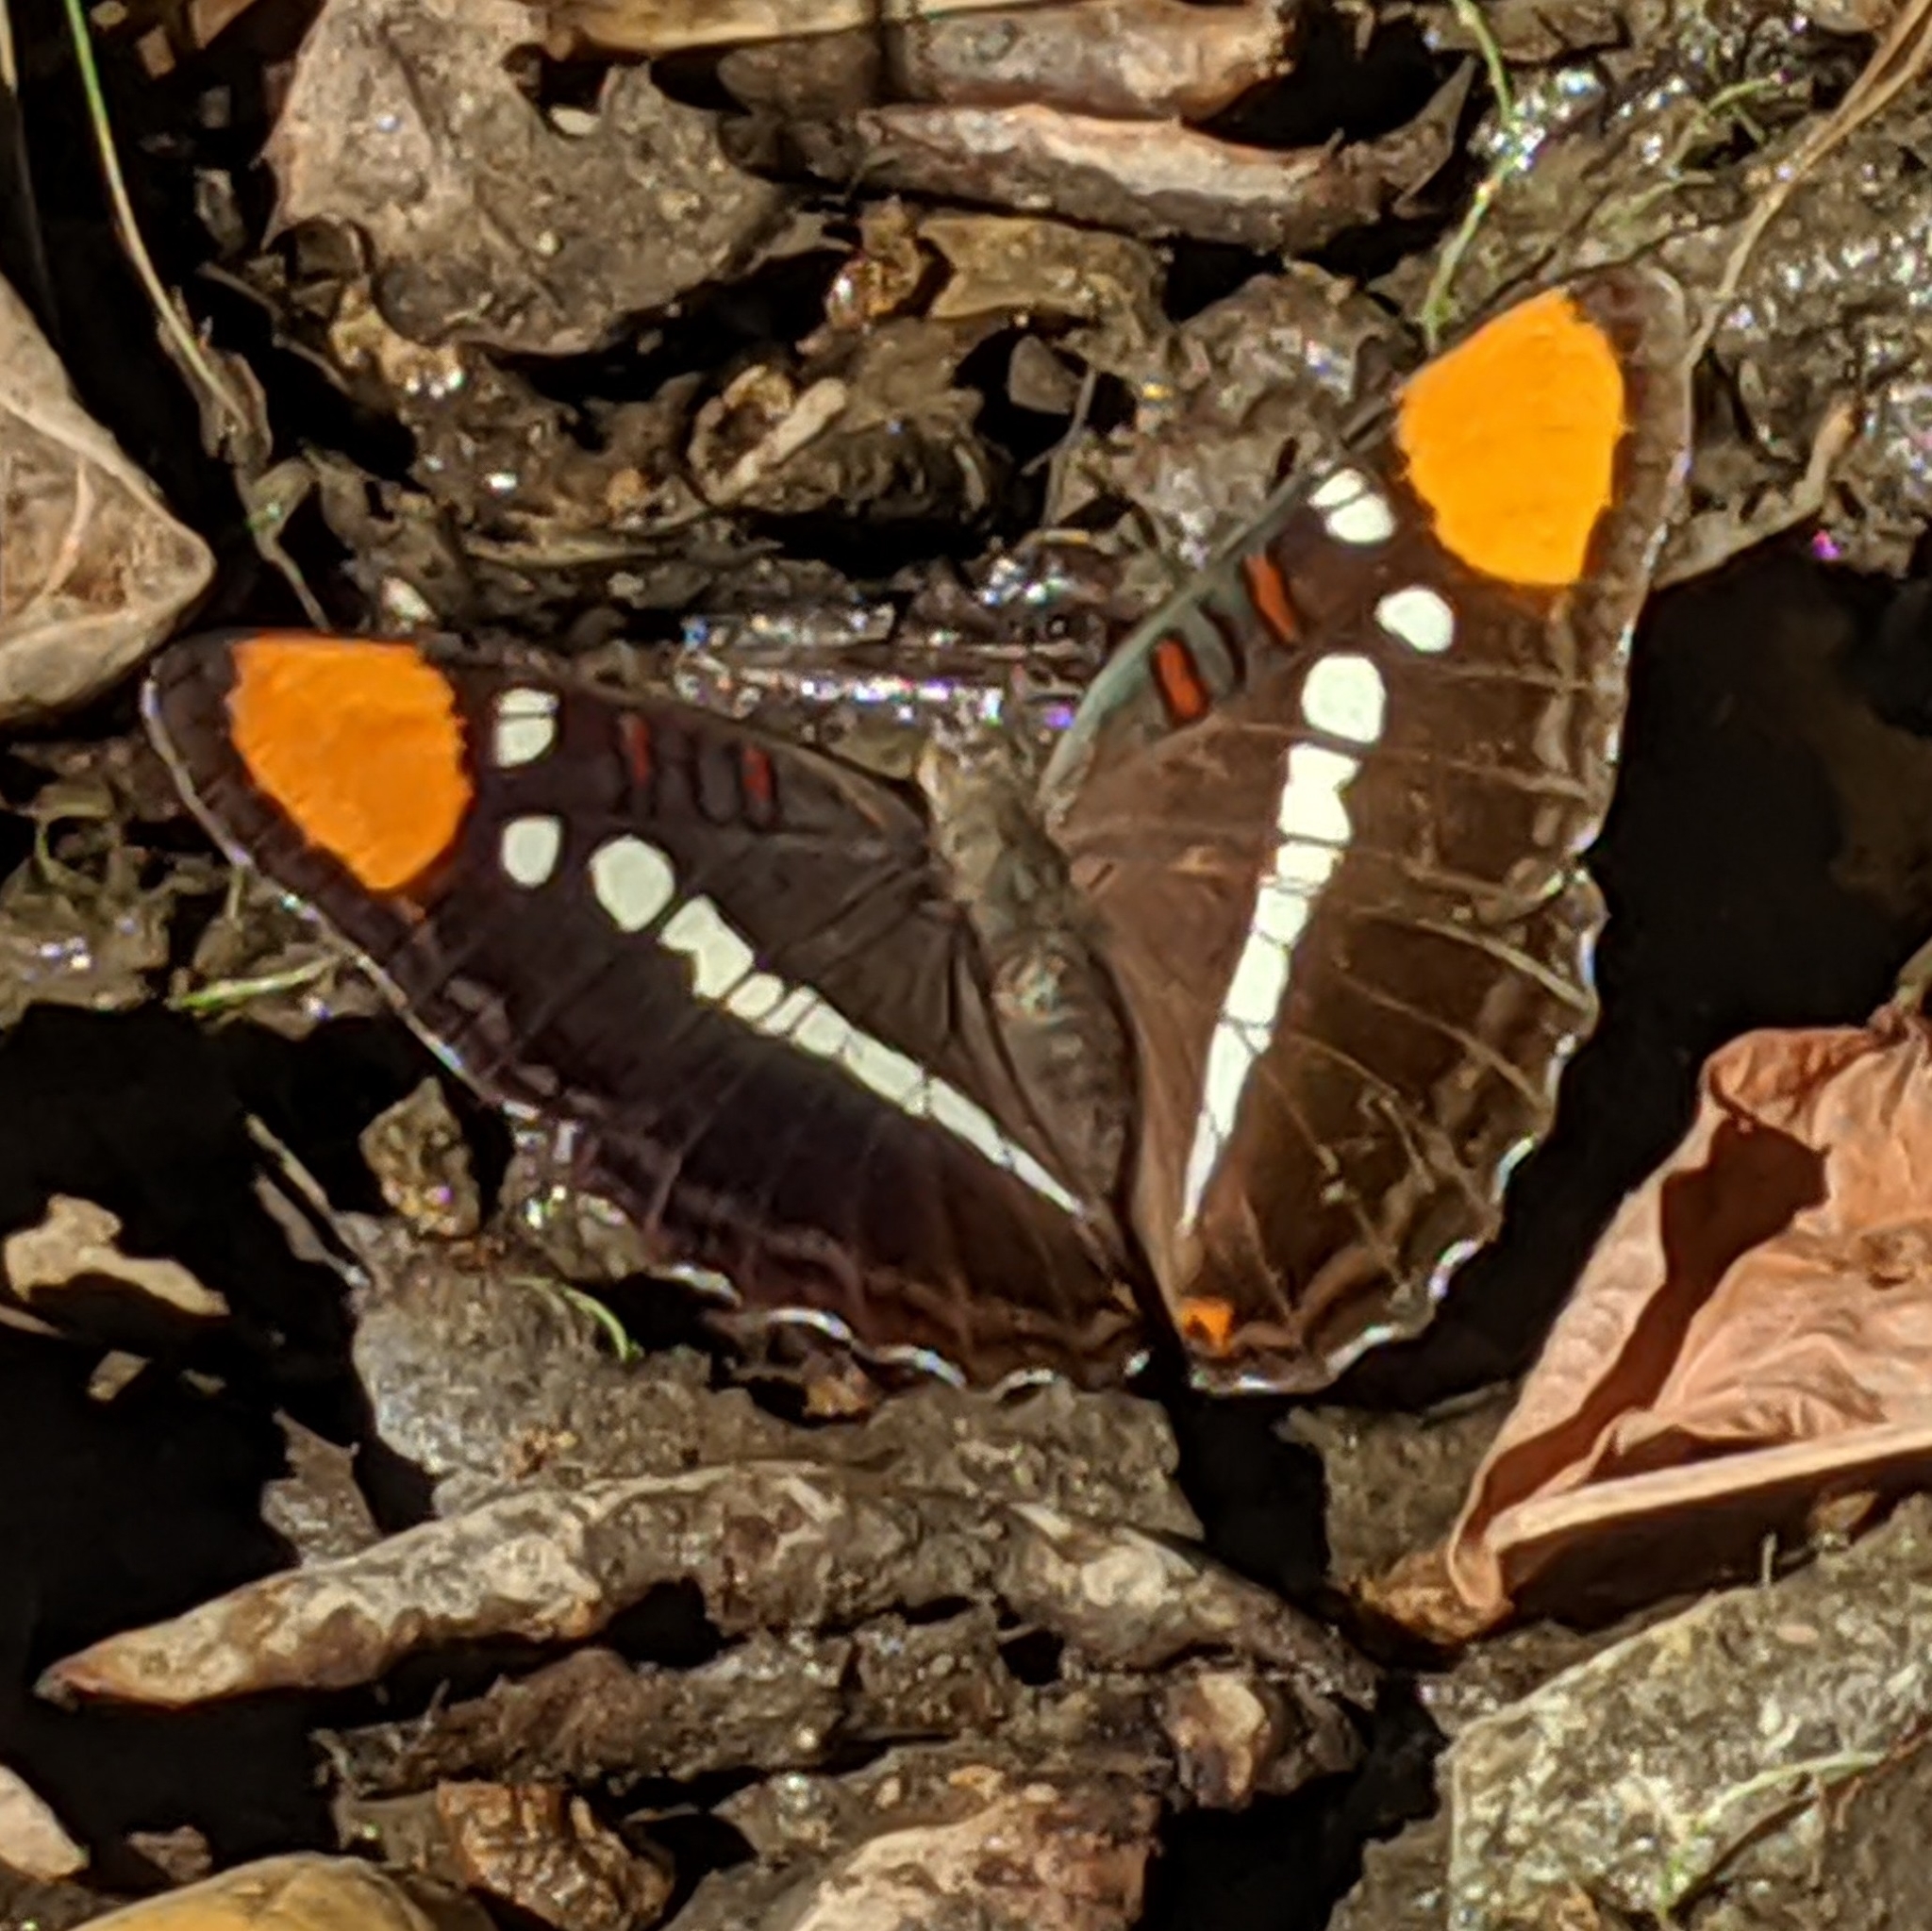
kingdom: Animalia
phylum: Arthropoda
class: Insecta
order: Lepidoptera
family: Nymphalidae
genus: Limenitis
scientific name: Limenitis bredowii
